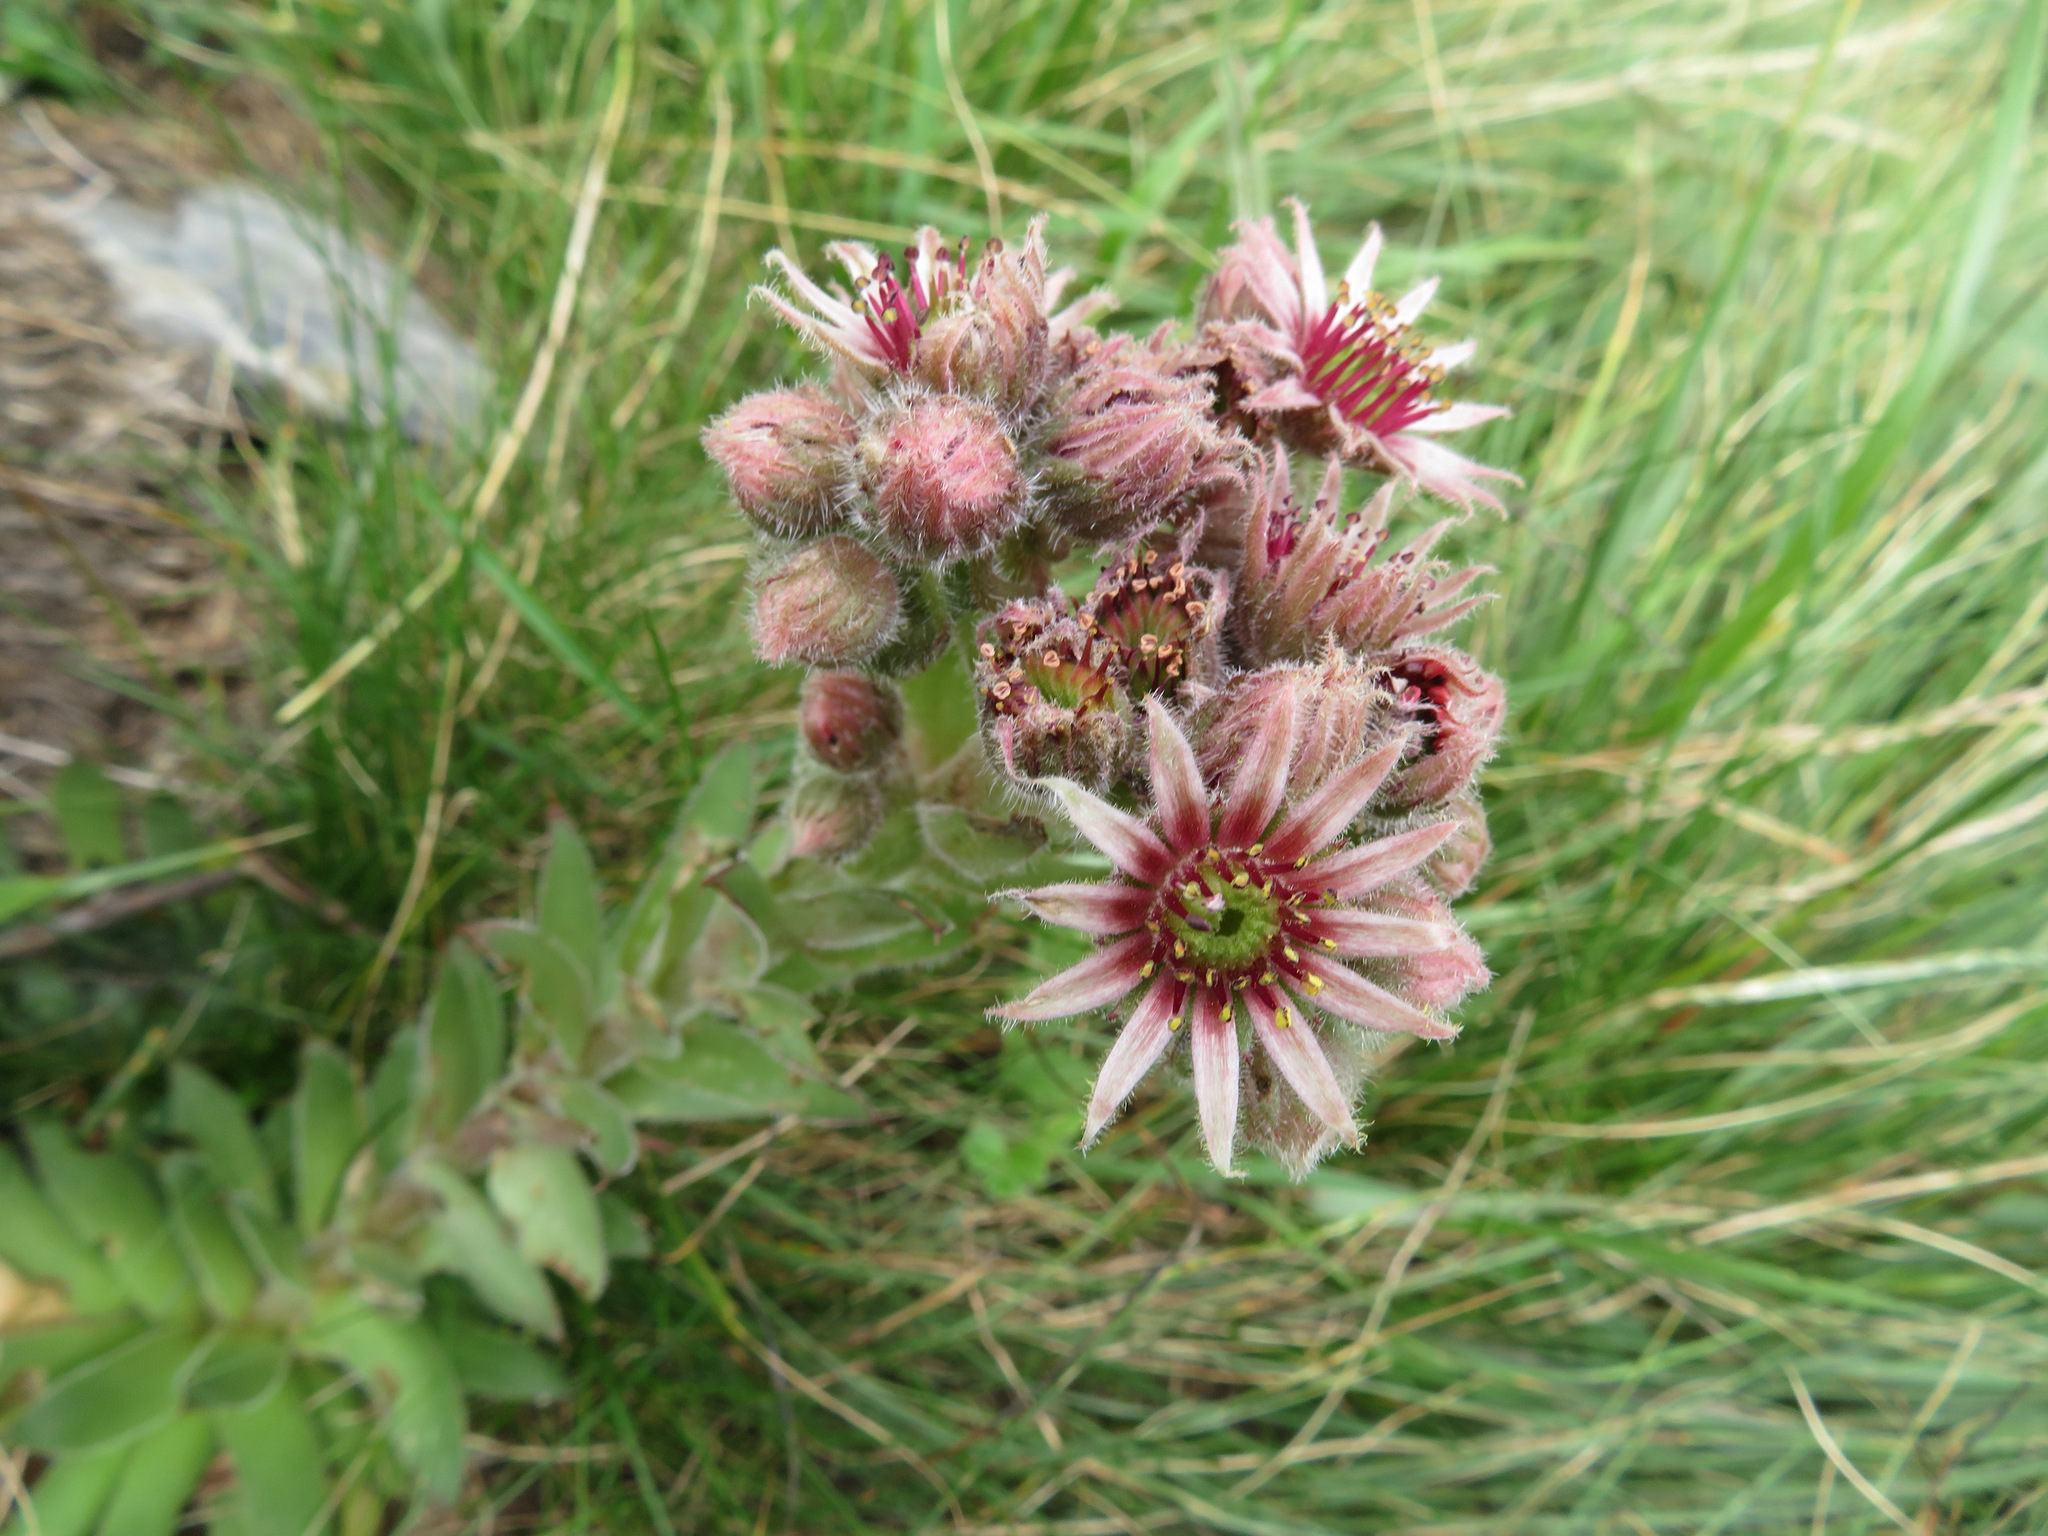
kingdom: Plantae
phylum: Tracheophyta
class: Magnoliopsida
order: Saxifragales
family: Crassulaceae
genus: Sempervivum
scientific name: Sempervivum tectorum
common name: House-leek
